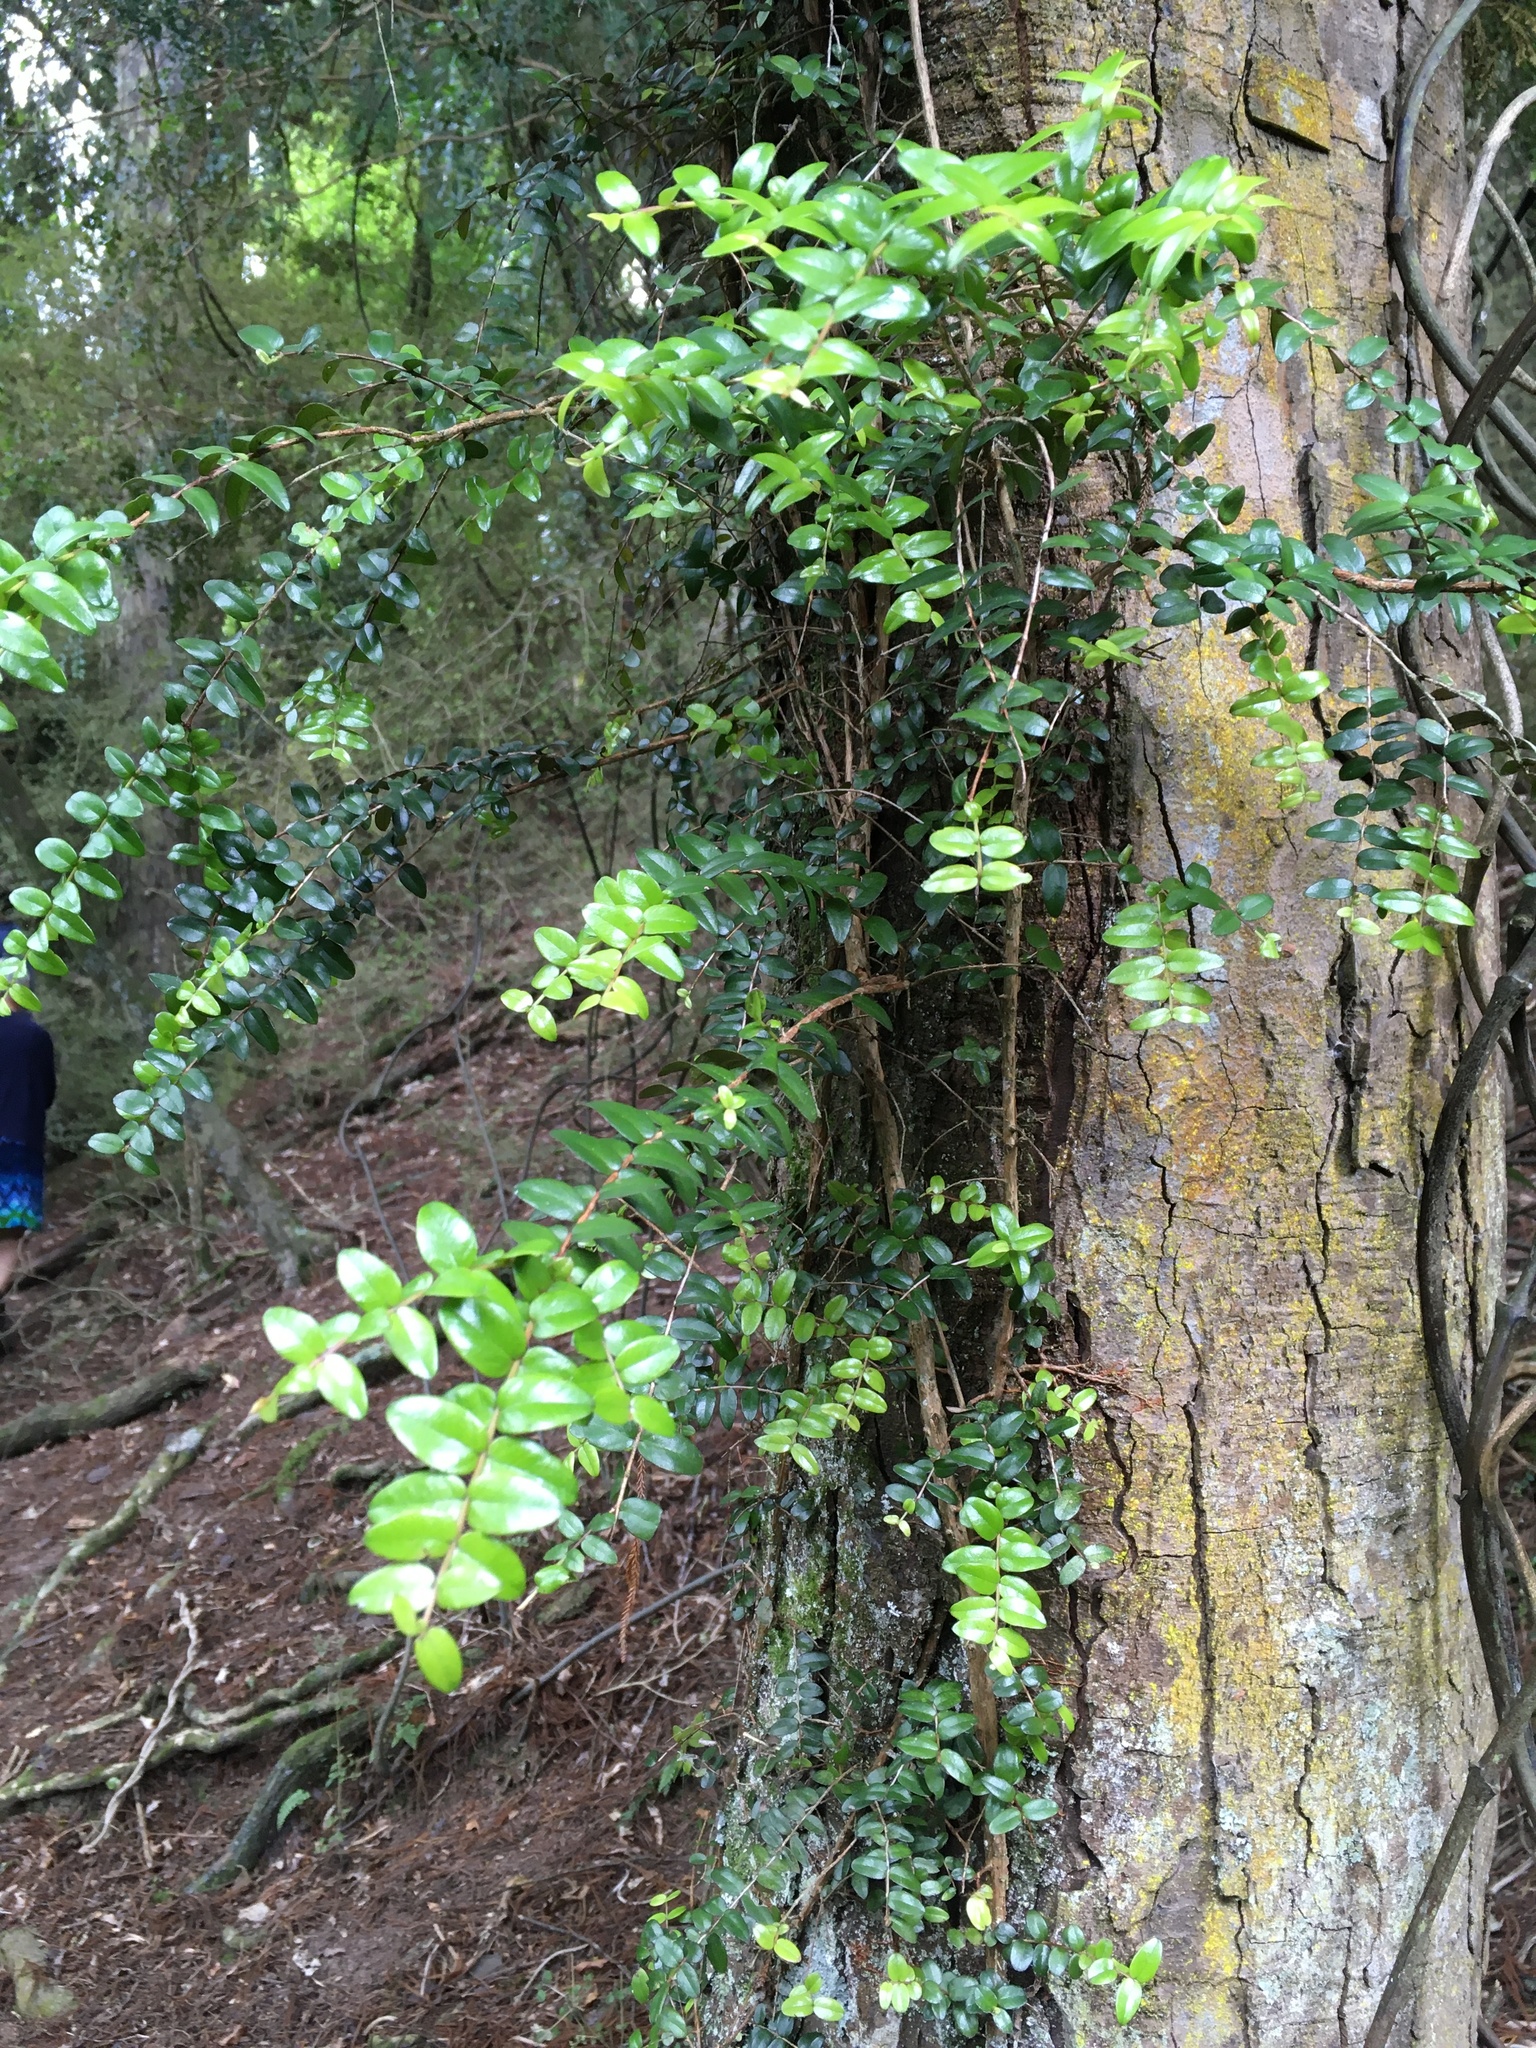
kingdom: Plantae
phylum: Tracheophyta
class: Magnoliopsida
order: Myrtales
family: Myrtaceae
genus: Metrosideros
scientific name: Metrosideros diffusa
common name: Small ratavine
